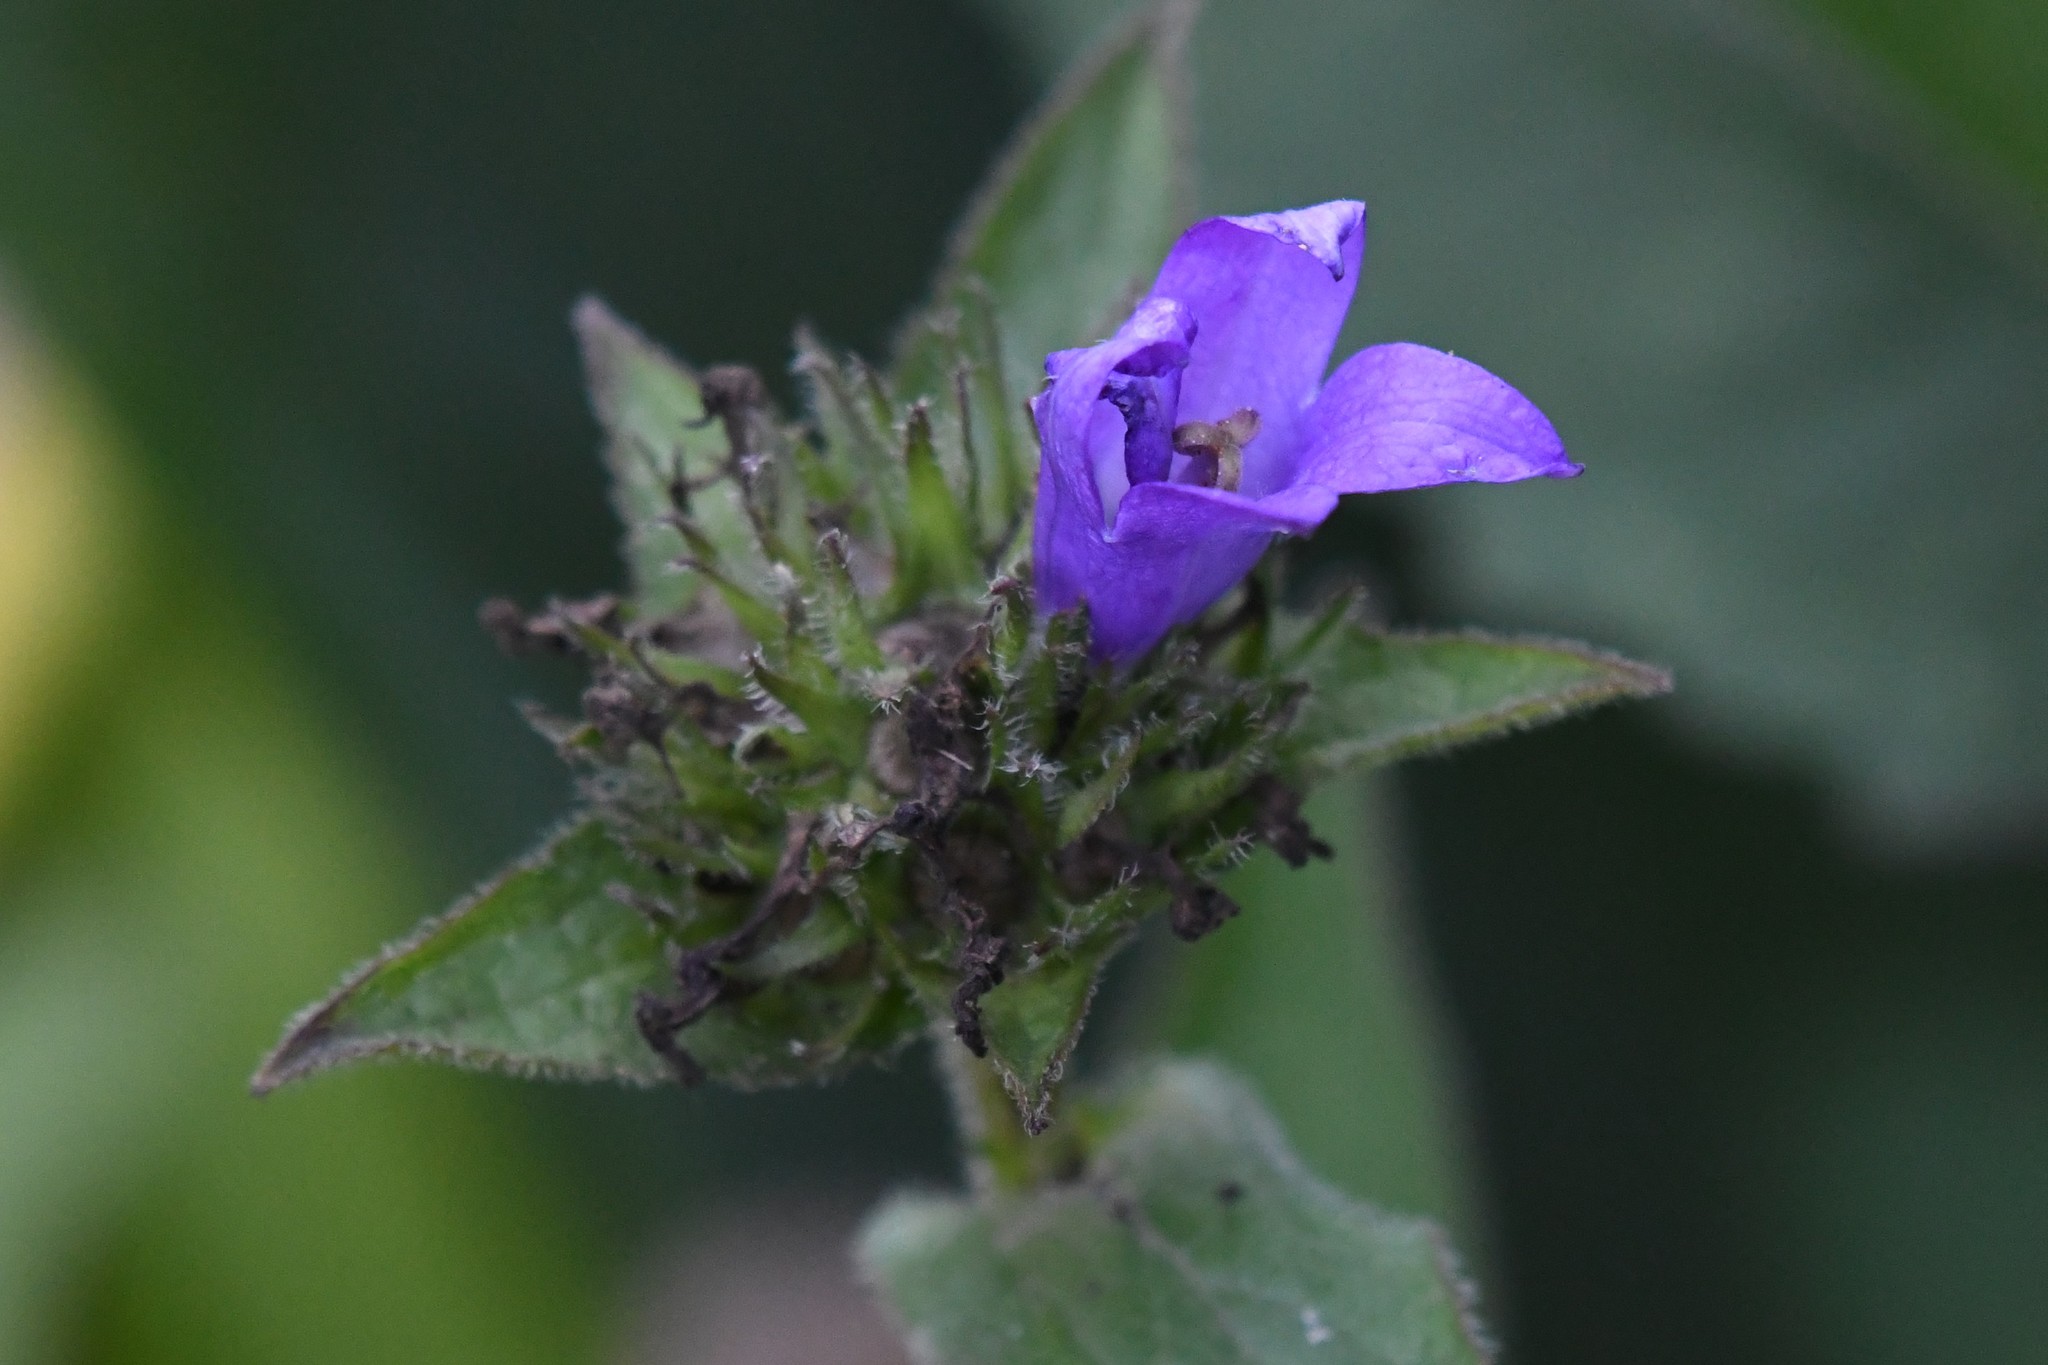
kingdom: Plantae
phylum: Tracheophyta
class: Magnoliopsida
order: Asterales
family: Campanulaceae
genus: Campanula
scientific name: Campanula glomerata
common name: Clustered bellflower
